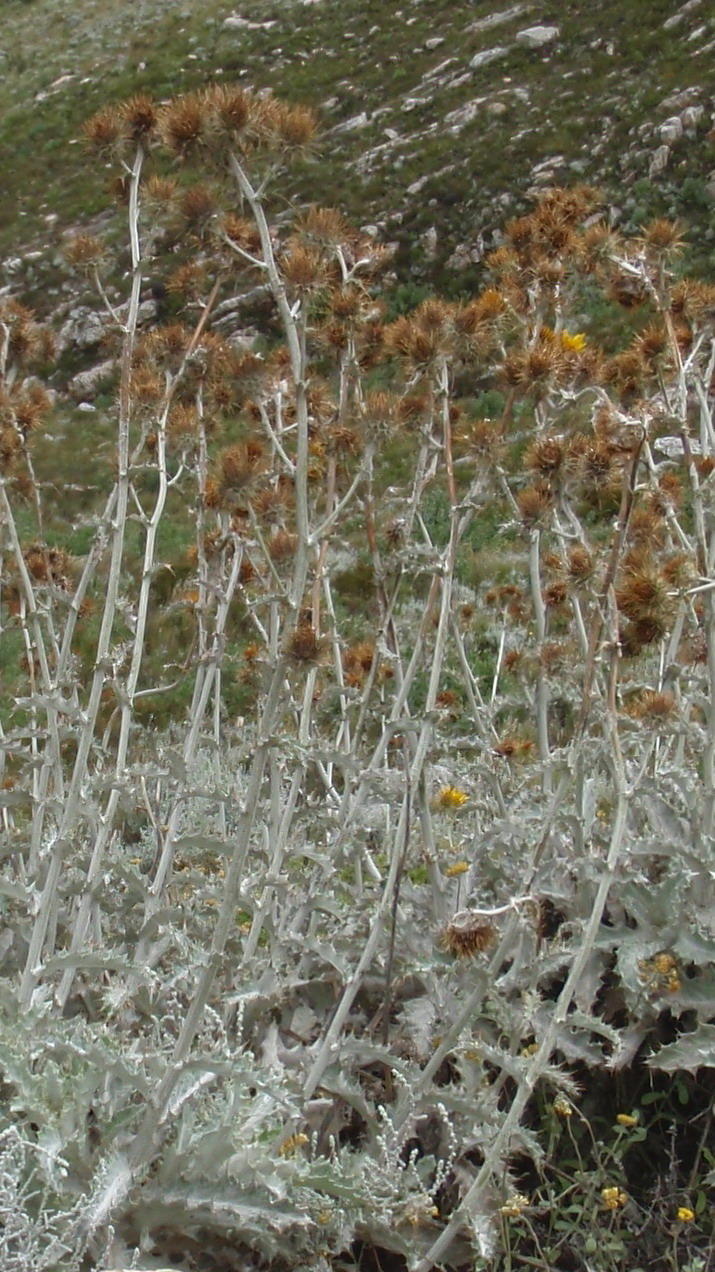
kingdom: Plantae
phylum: Tracheophyta
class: Magnoliopsida
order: Asterales
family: Asteraceae
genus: Berkheya
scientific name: Berkheya francisci
